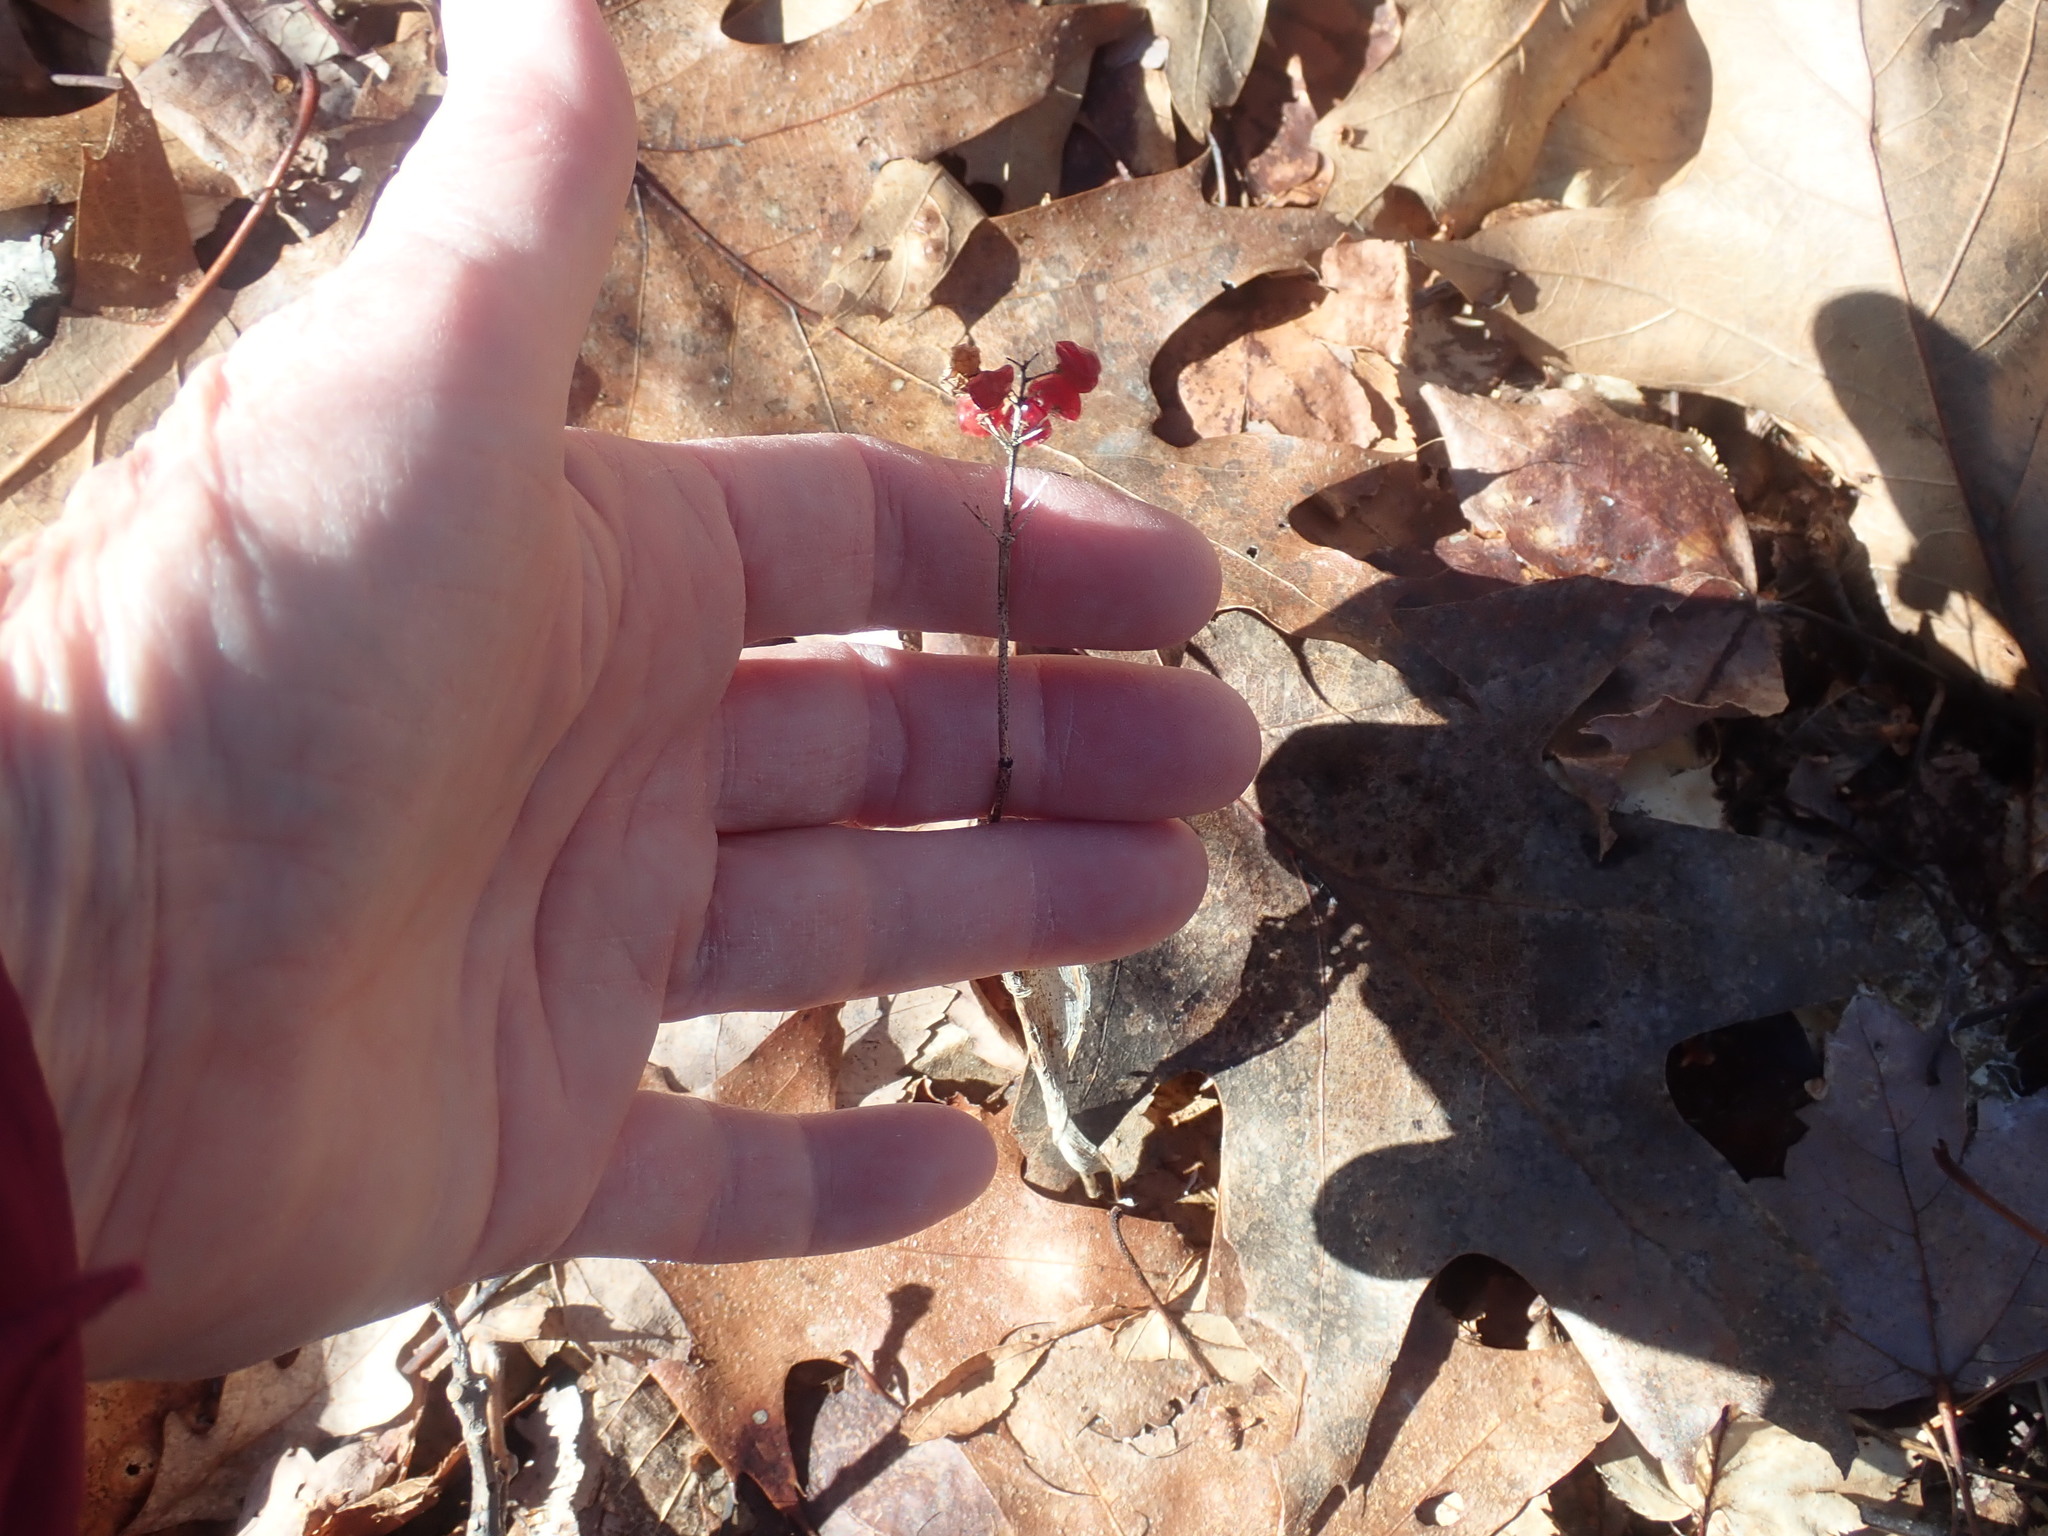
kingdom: Plantae
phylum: Tracheophyta
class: Liliopsida
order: Asparagales
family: Asparagaceae
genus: Maianthemum
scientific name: Maianthemum canadense
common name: False lily-of-the-valley
